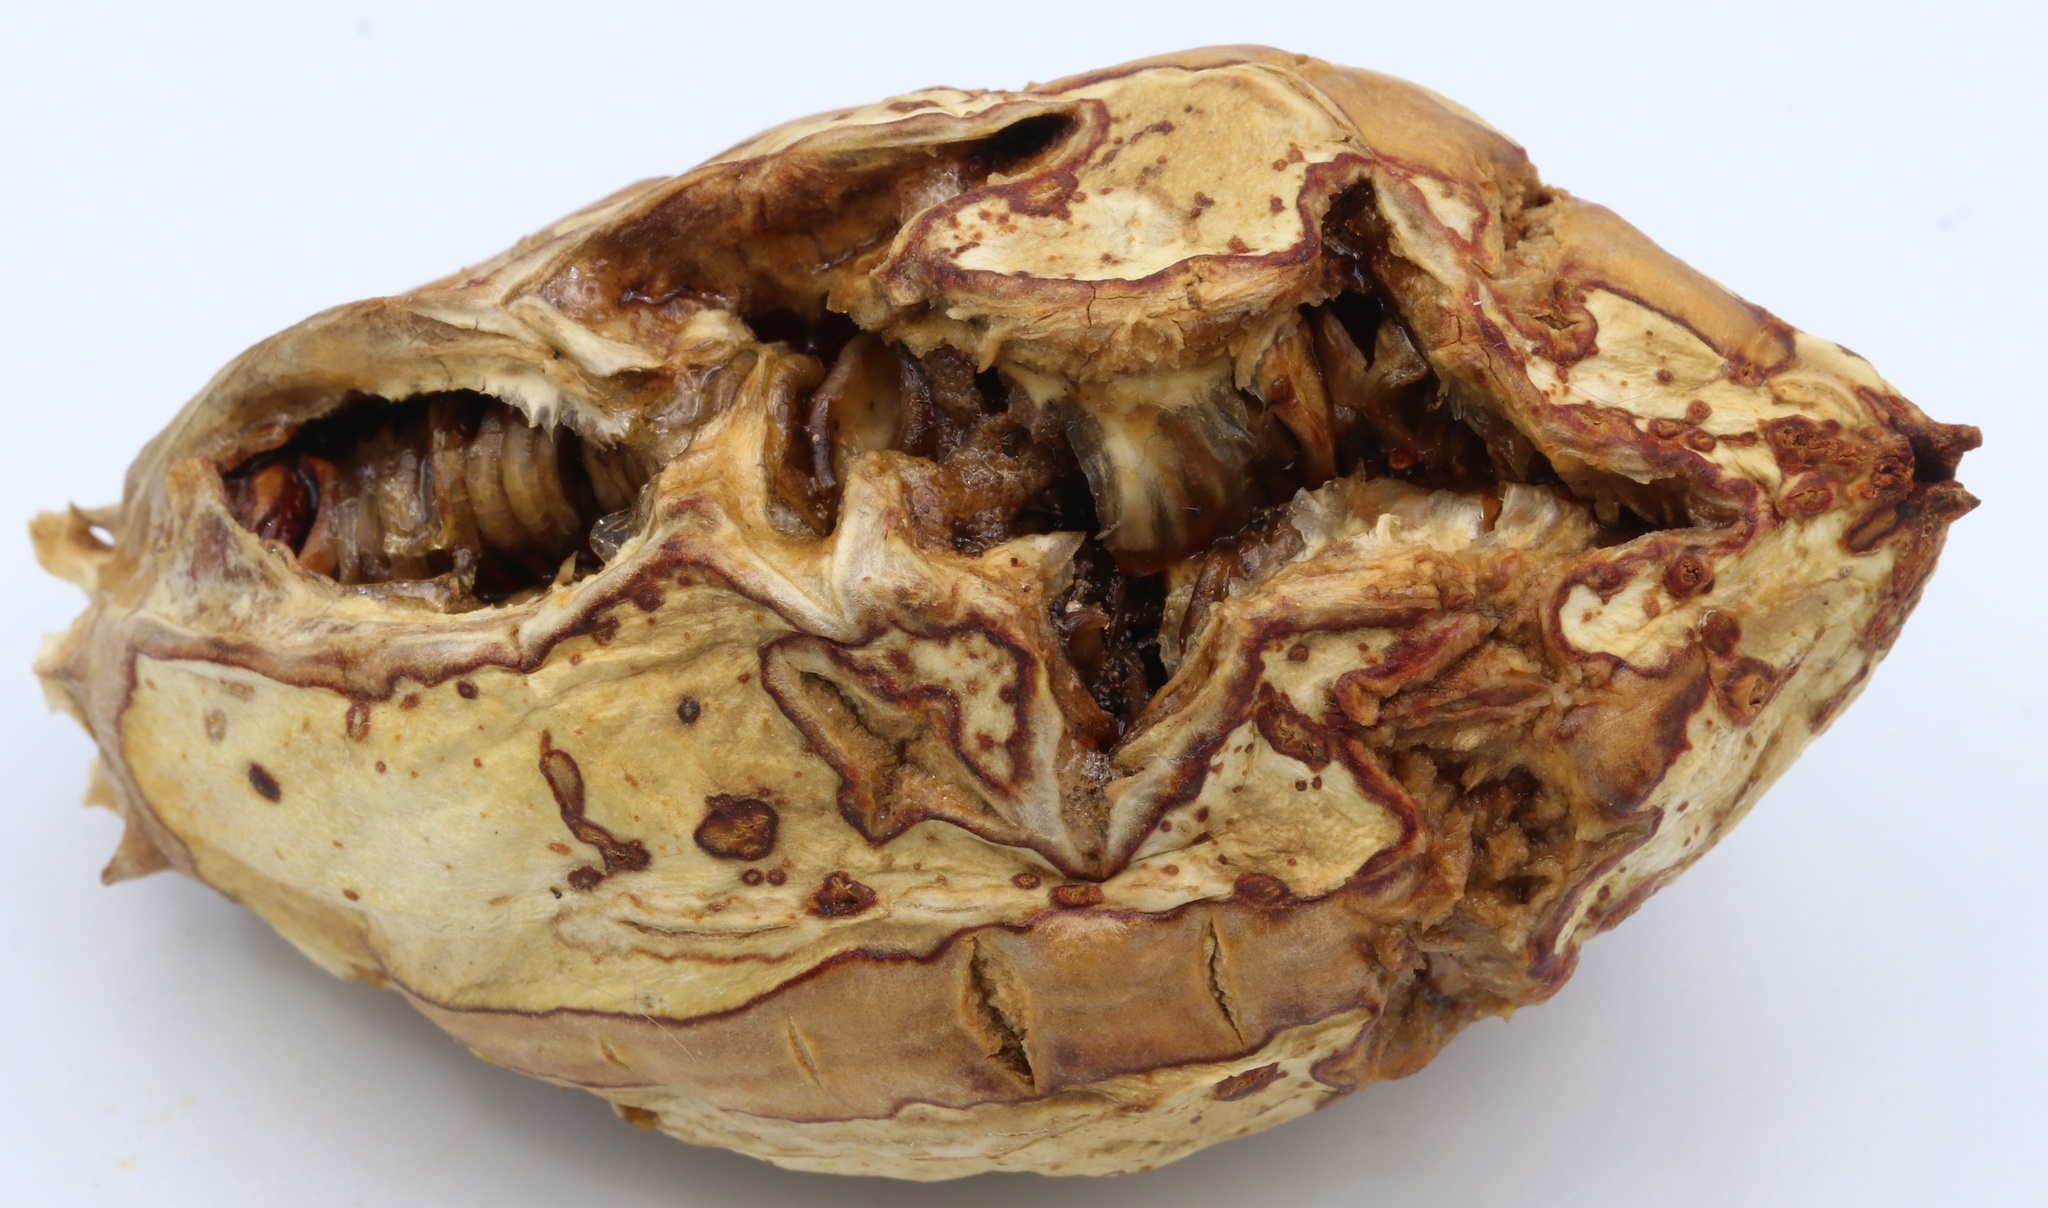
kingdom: Plantae
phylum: Tracheophyta
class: Liliopsida
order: Asparagales
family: Asparagaceae
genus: Yucca
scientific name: Yucca brevifolia
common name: Joshua tree
